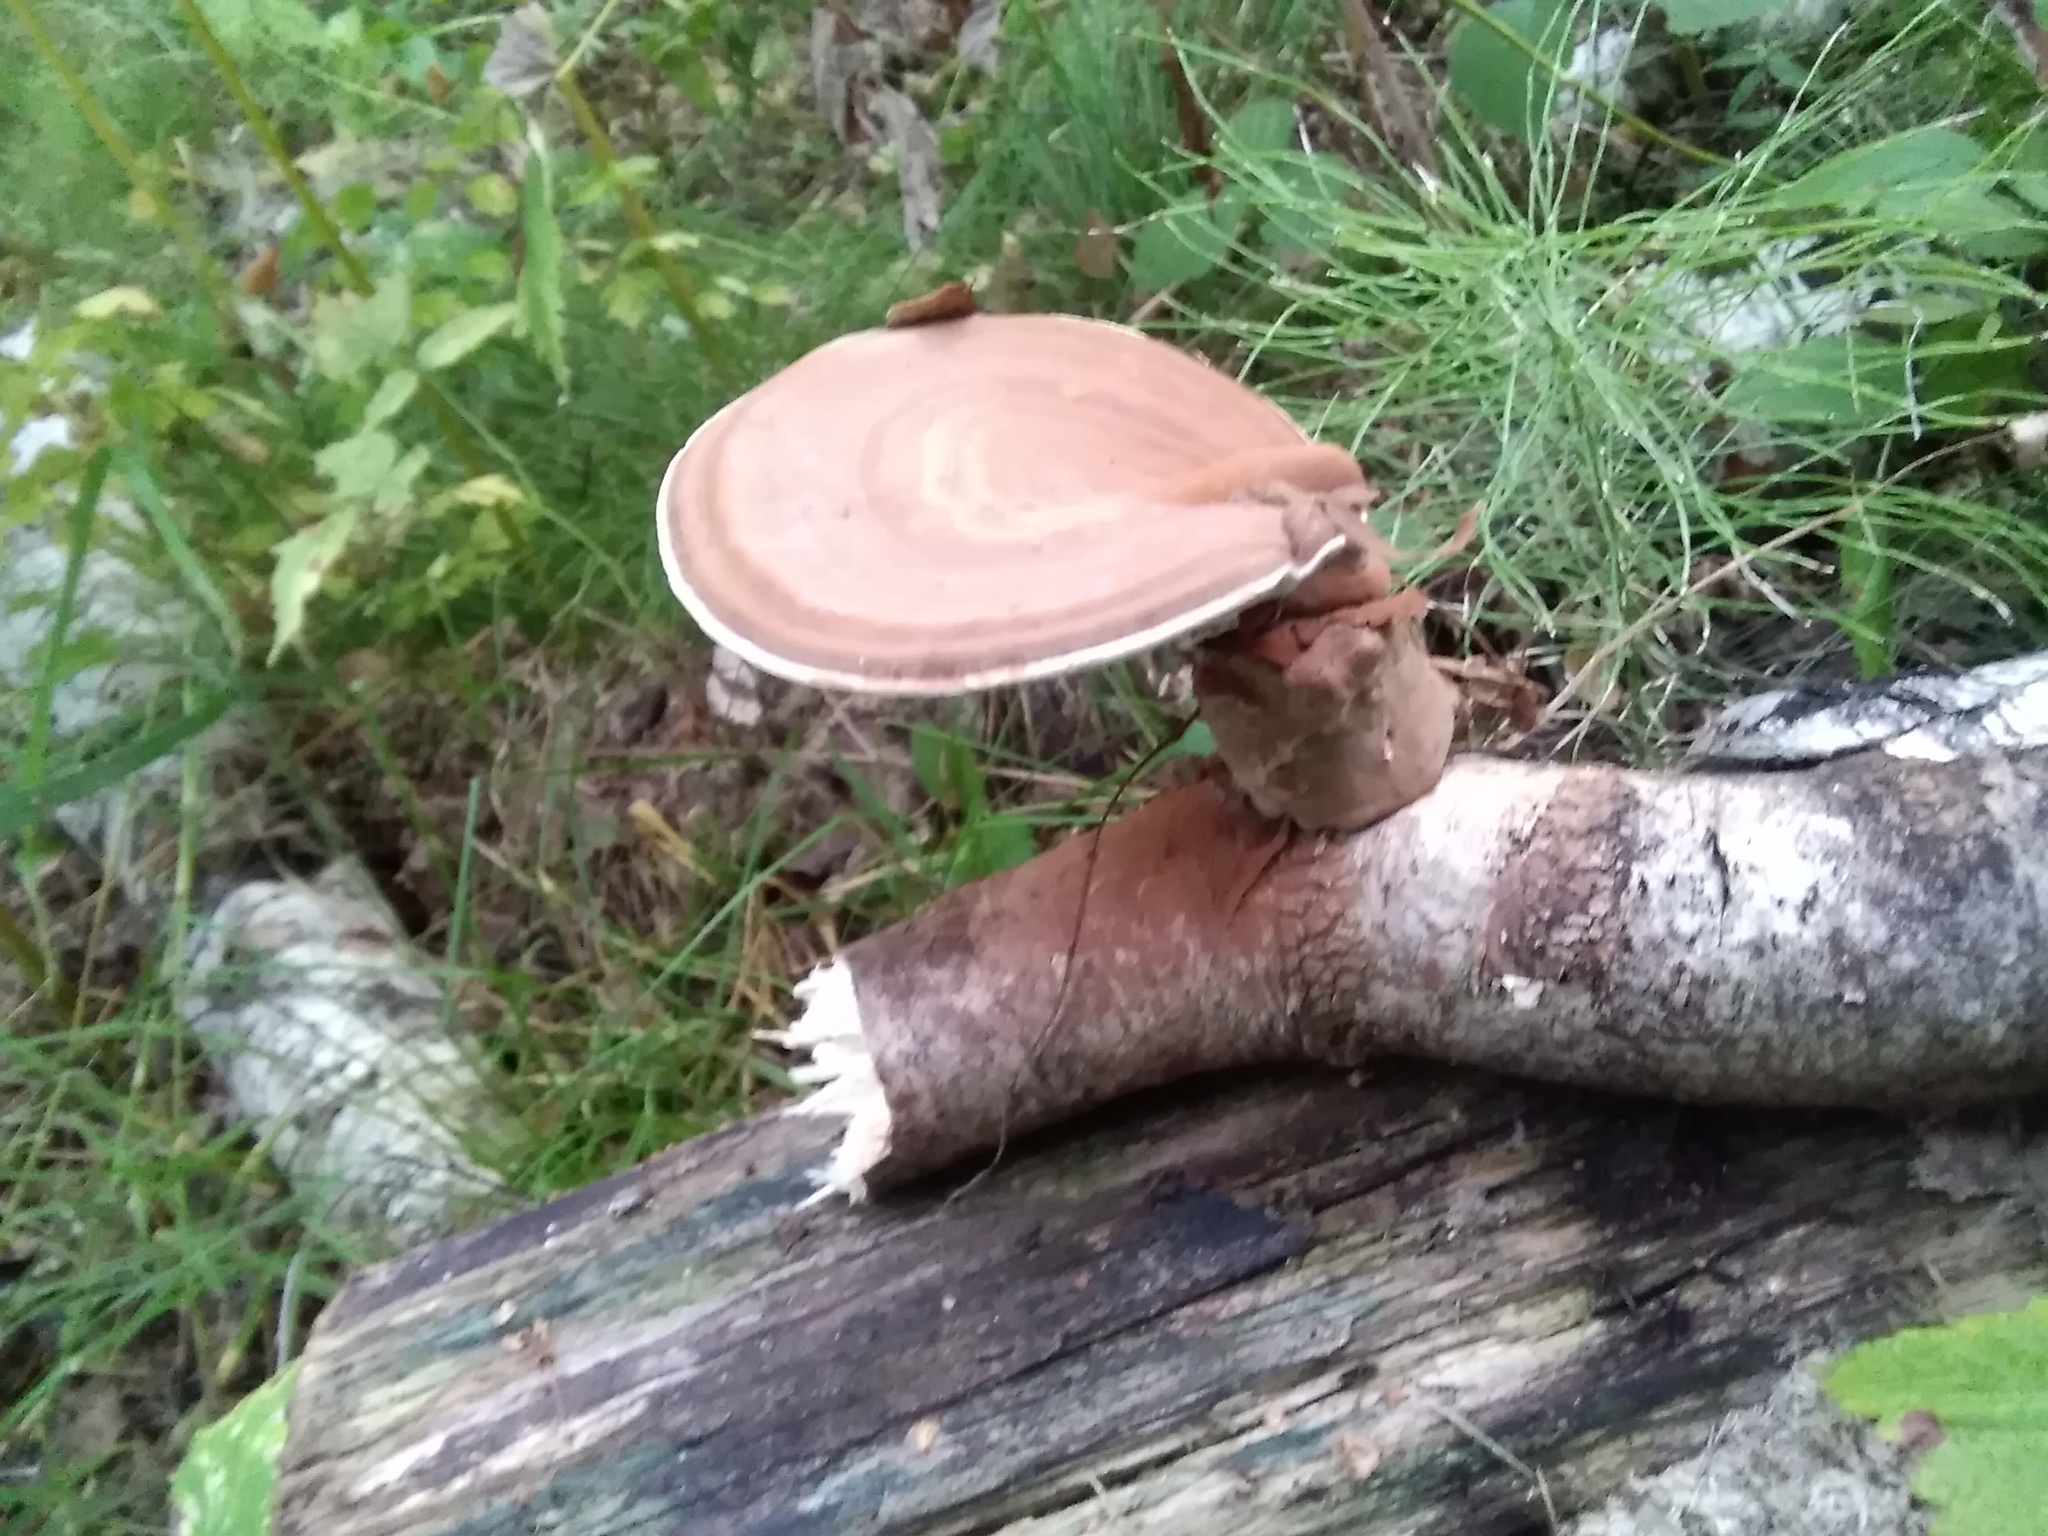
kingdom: Fungi
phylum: Basidiomycota
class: Agaricomycetes
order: Polyporales
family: Polyporaceae
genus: Ganoderma
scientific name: Ganoderma applanatum
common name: Artist's bracket
